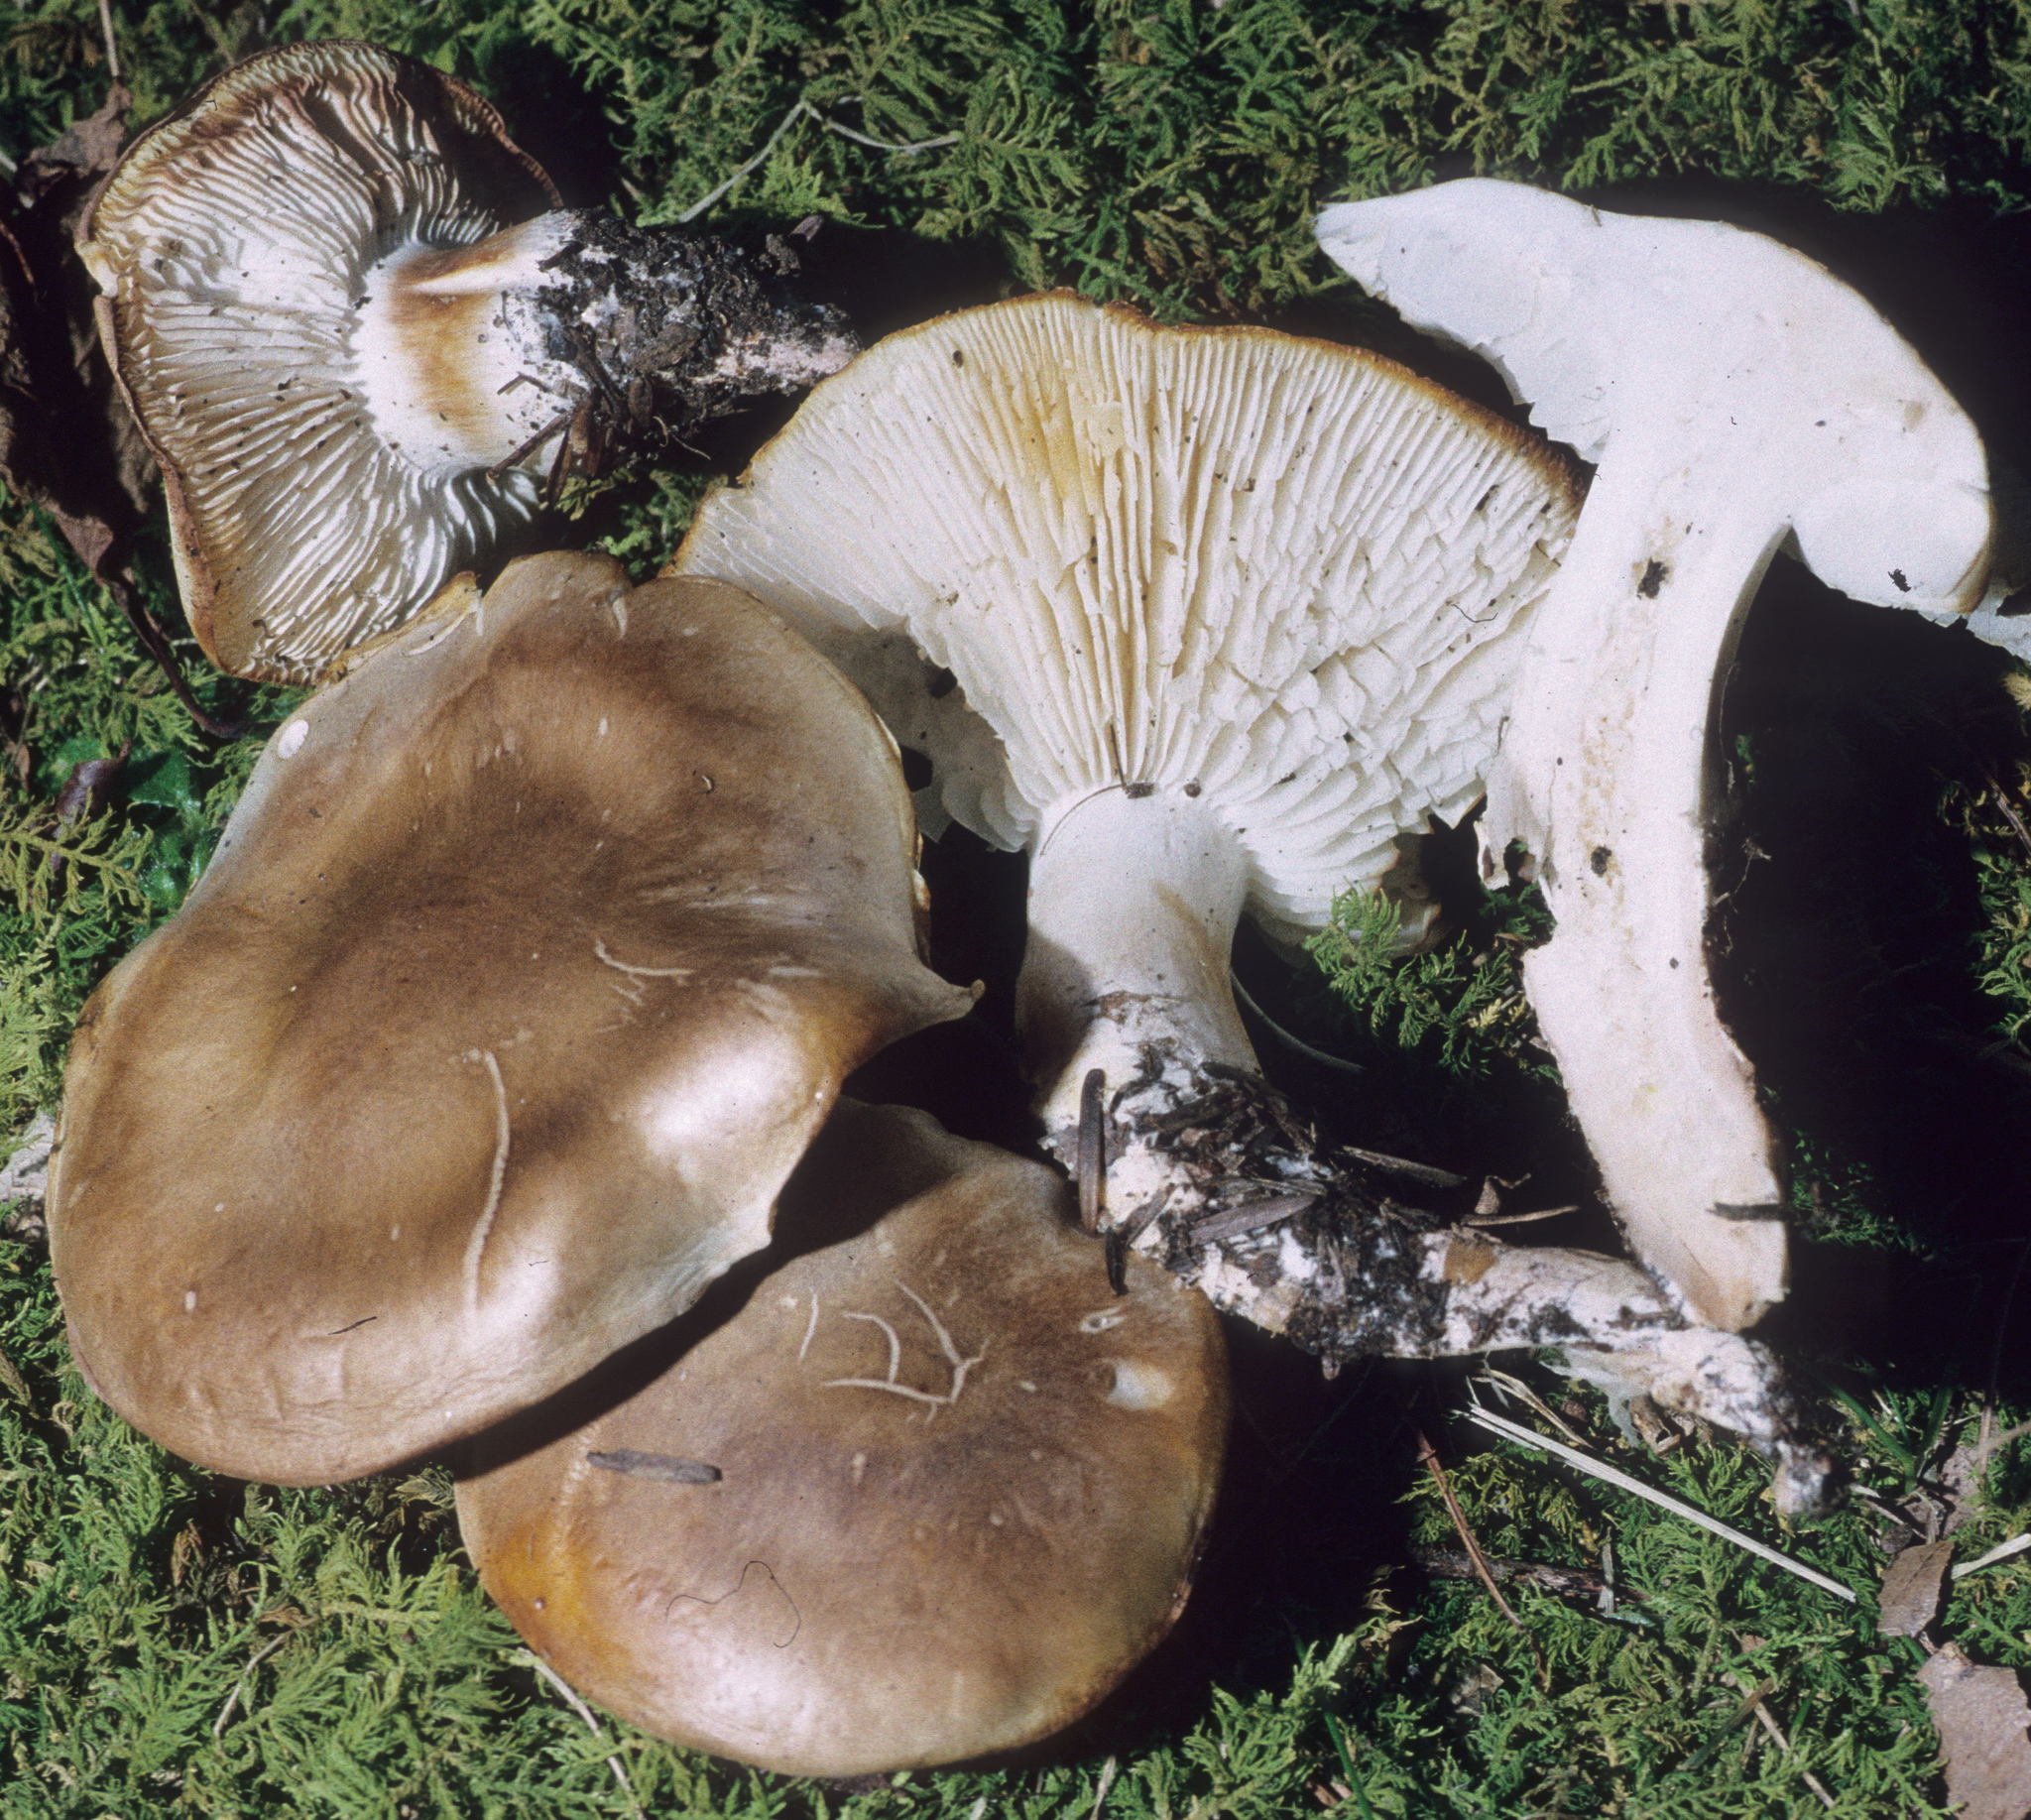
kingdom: Fungi
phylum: Basidiomycota
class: Agaricomycetes
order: Agaricales
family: Lyophyllaceae
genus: Lyophyllum
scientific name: Lyophyllum fuligineum
